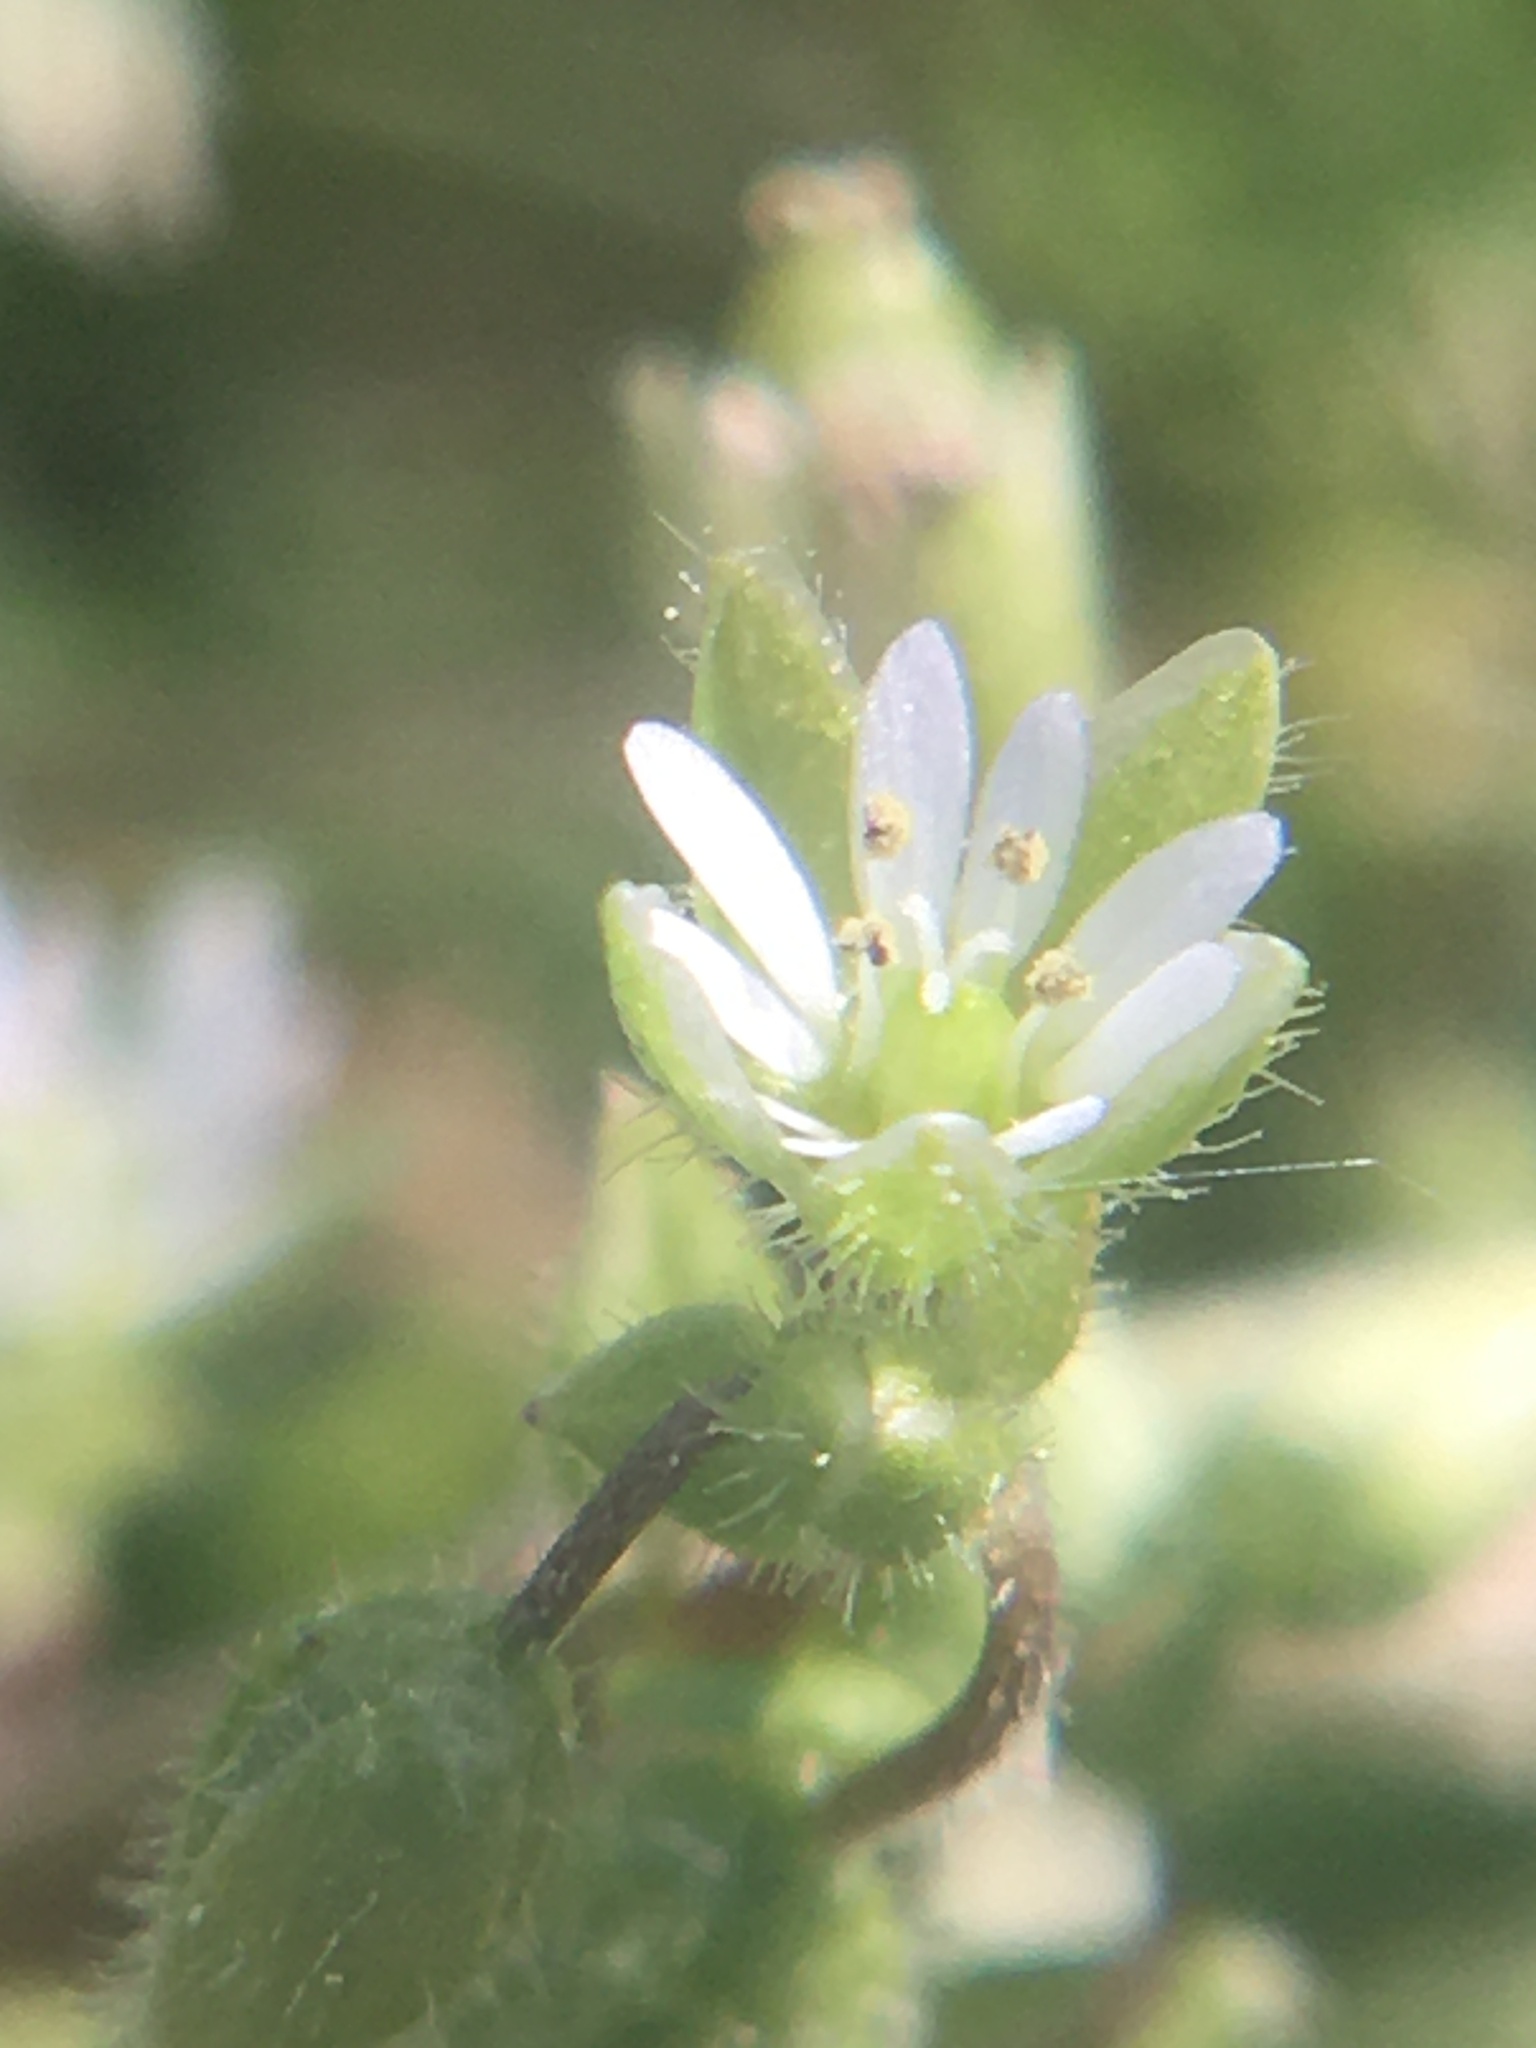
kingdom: Plantae
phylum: Tracheophyta
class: Magnoliopsida
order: Caryophyllales
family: Caryophyllaceae
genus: Stellaria
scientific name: Stellaria media
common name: Common chickweed
